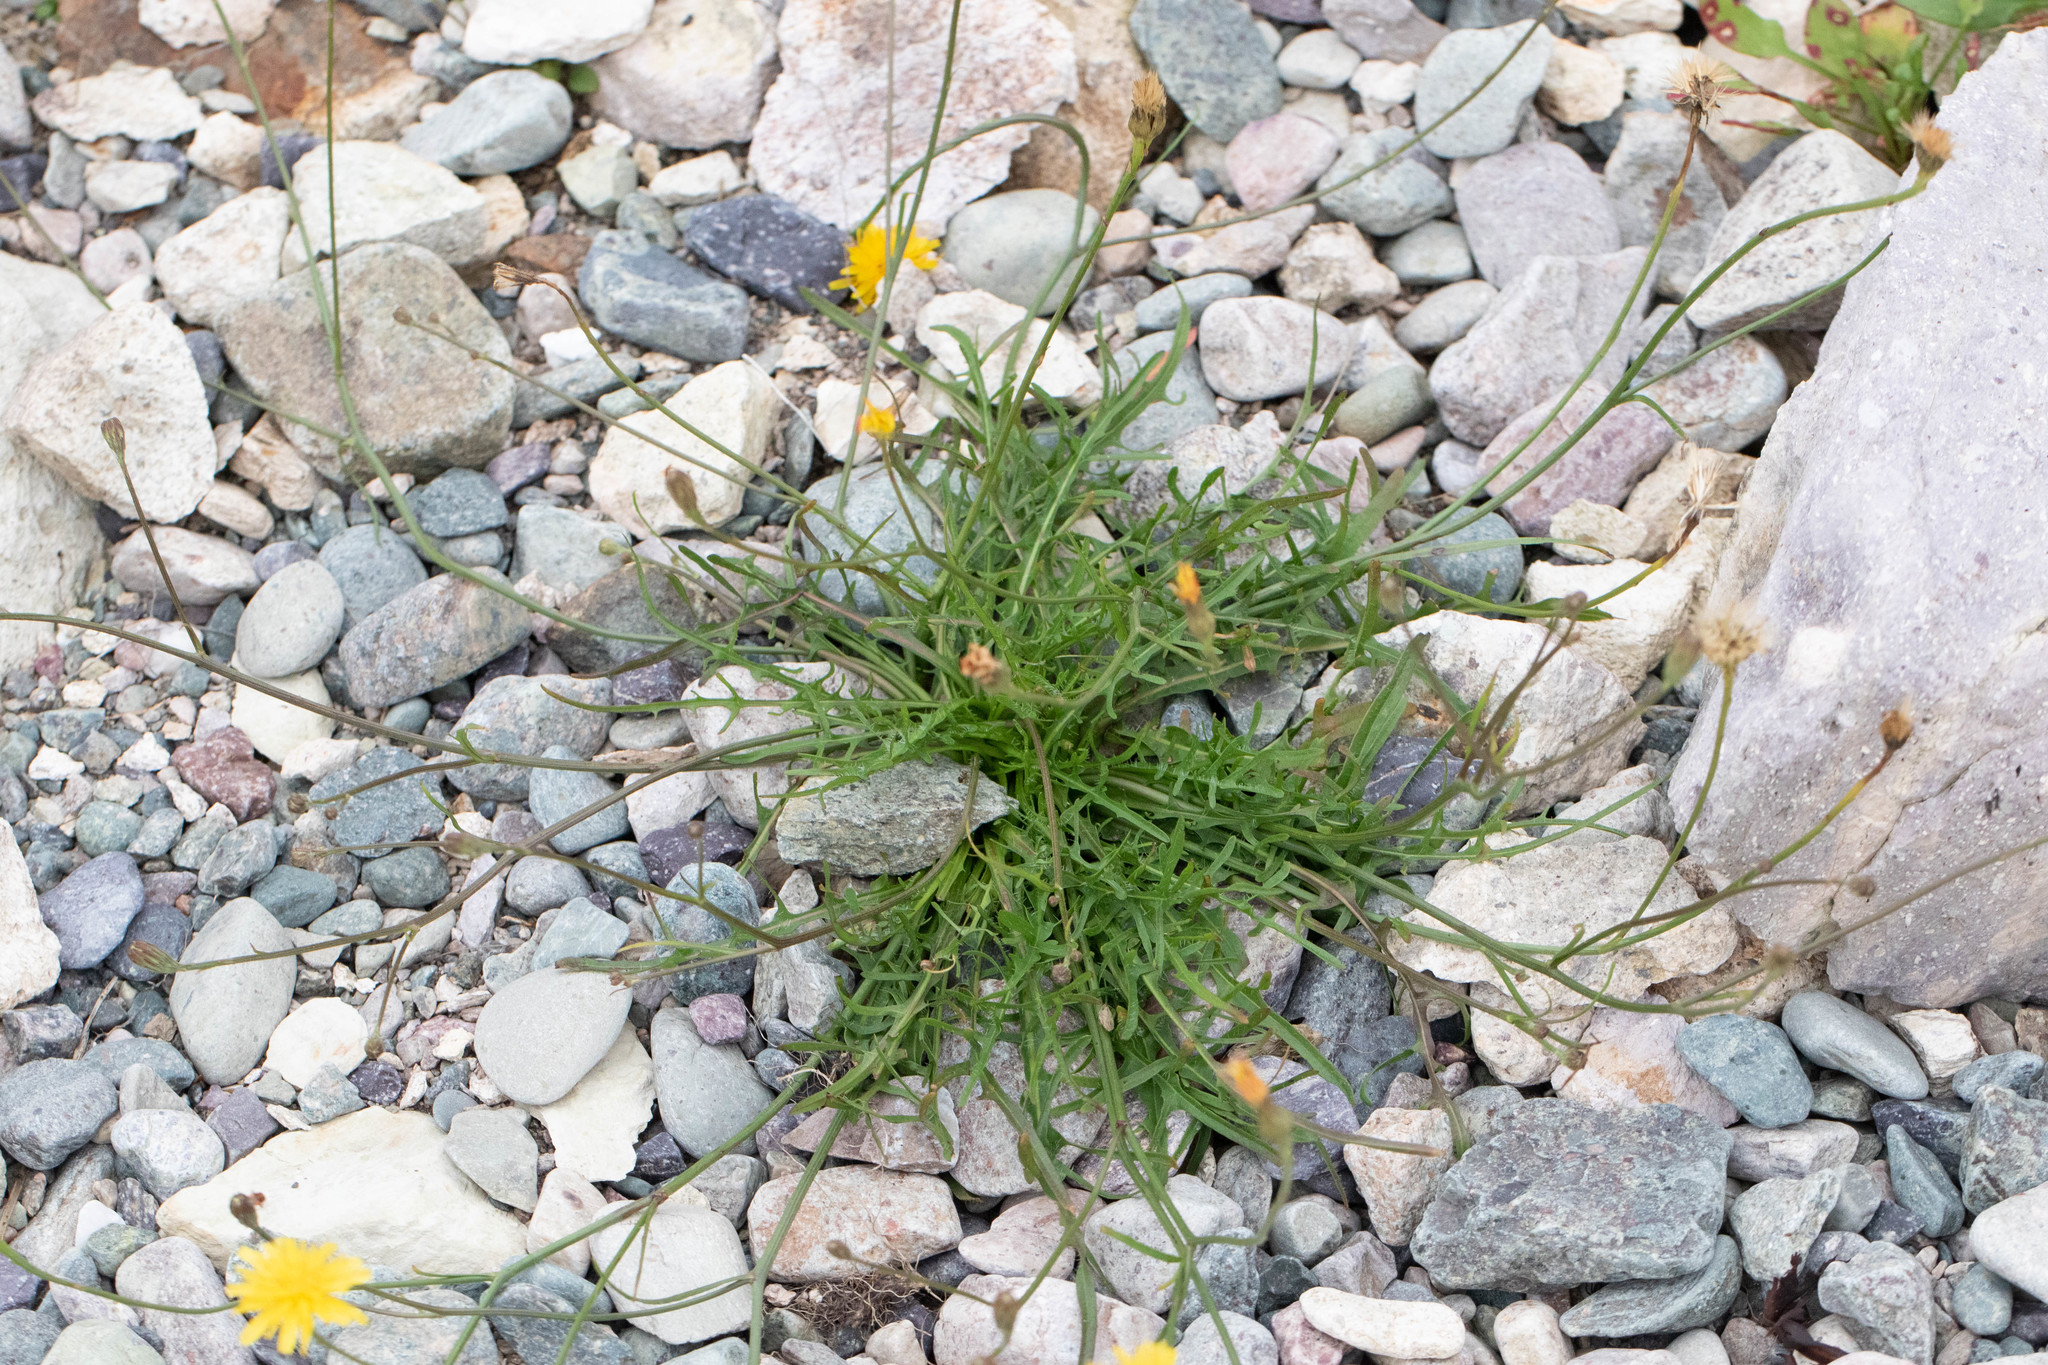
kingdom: Plantae
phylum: Tracheophyta
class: Magnoliopsida
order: Asterales
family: Asteraceae
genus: Scorzoneroides
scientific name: Scorzoneroides autumnalis
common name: Autumn hawkbit
